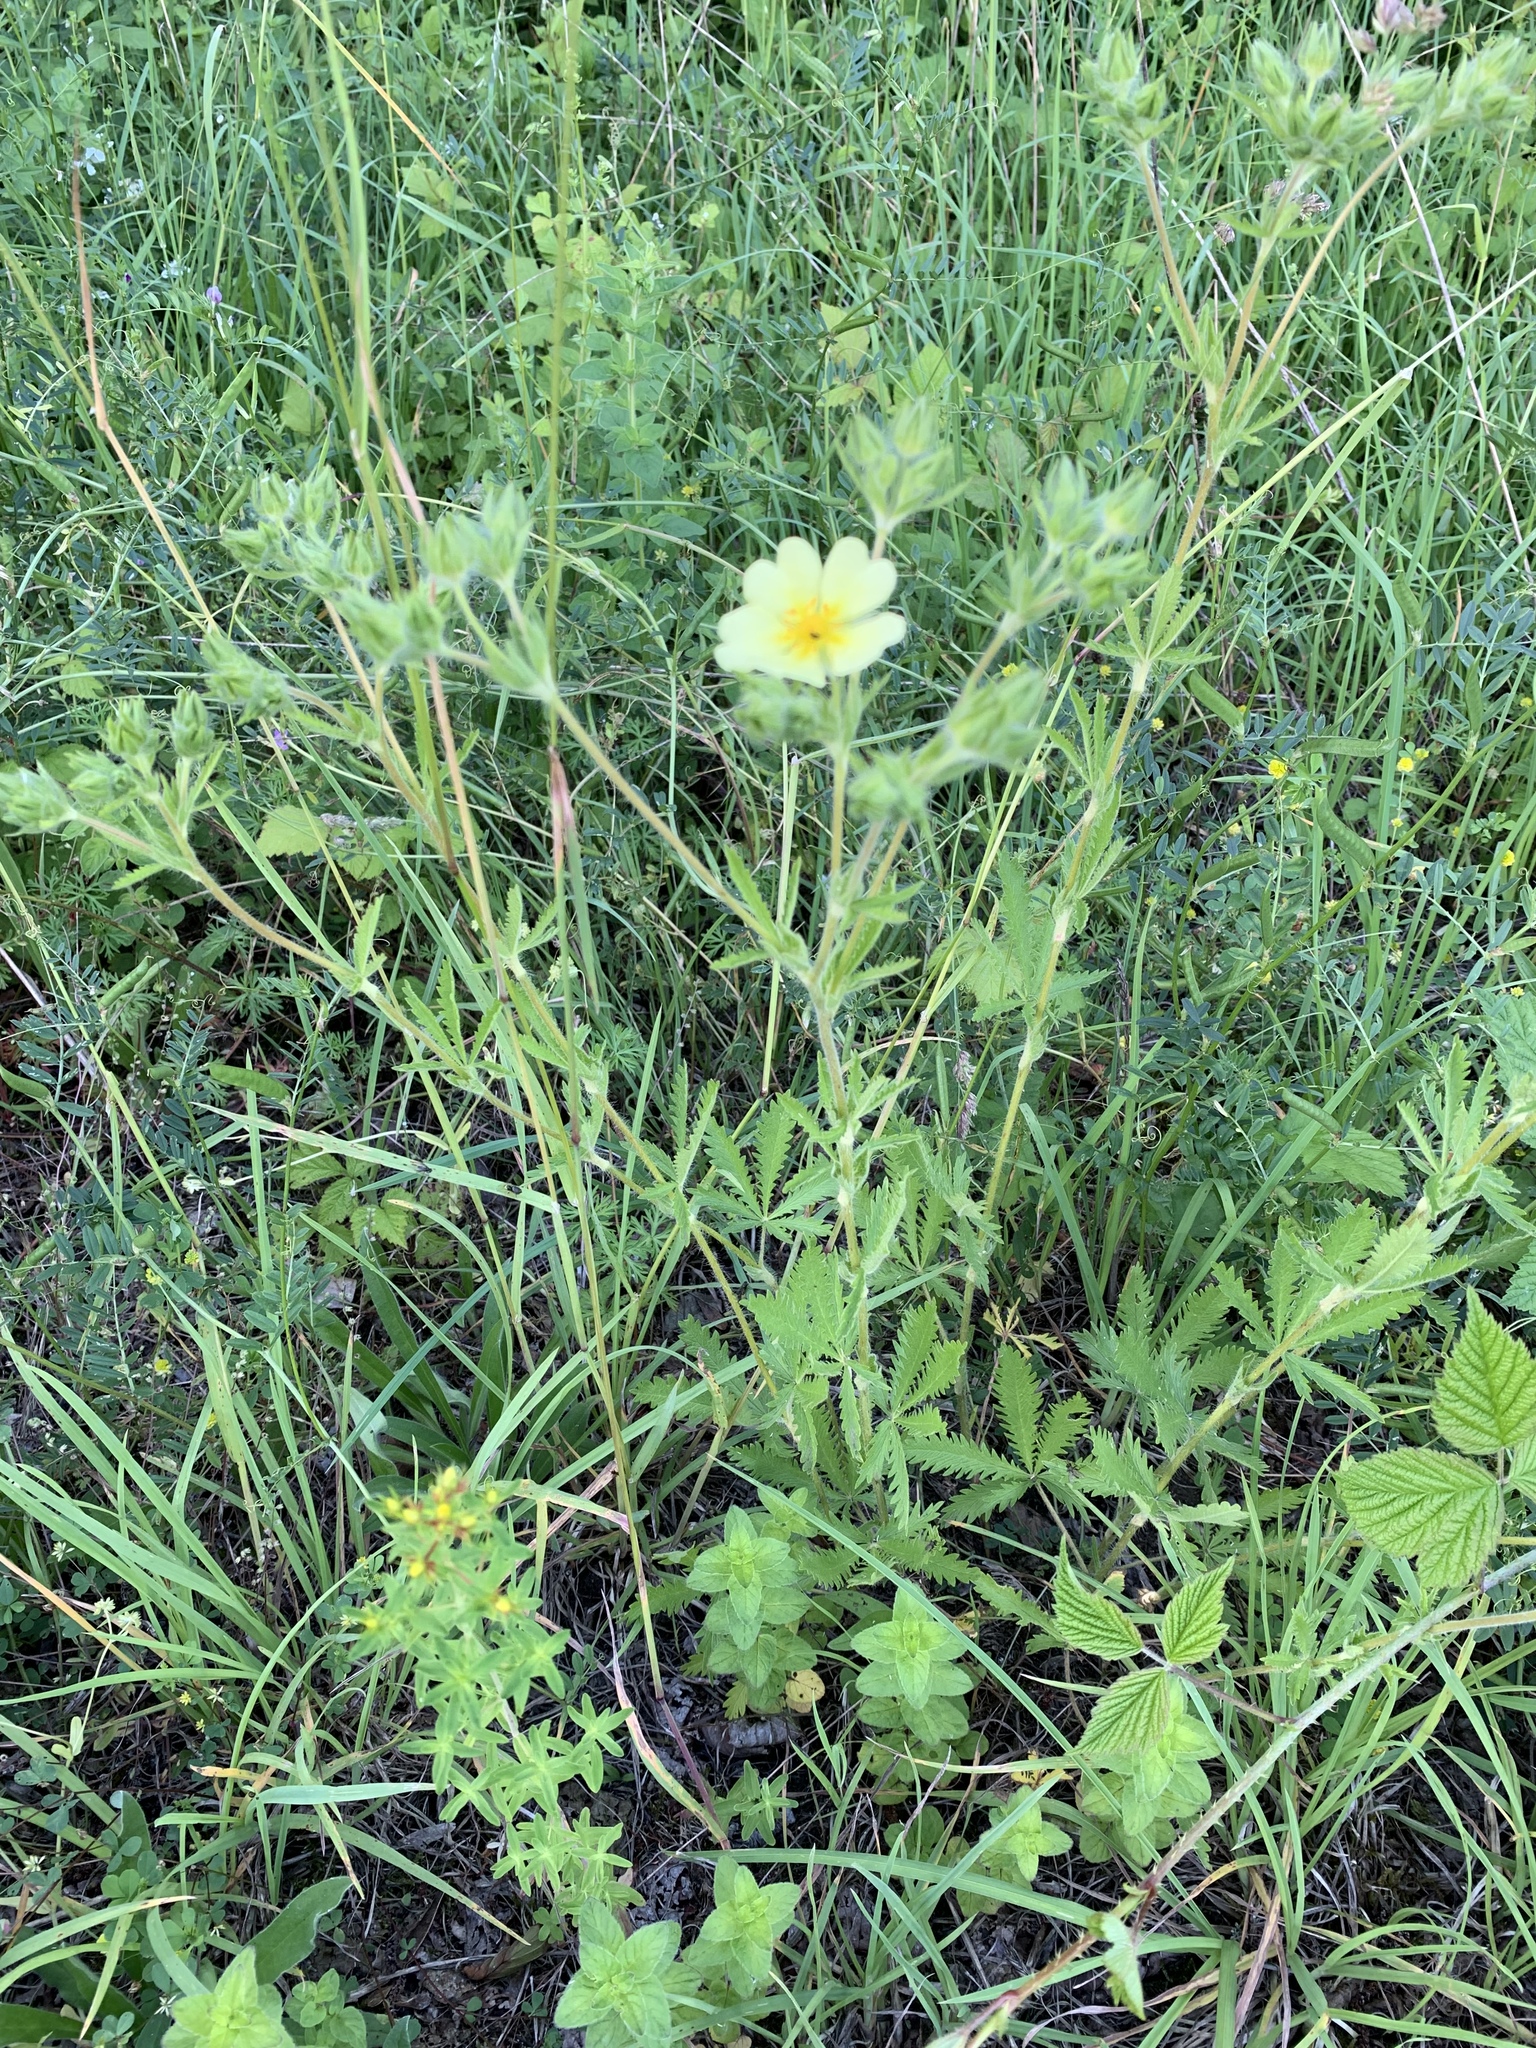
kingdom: Plantae
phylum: Tracheophyta
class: Magnoliopsida
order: Rosales
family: Rosaceae
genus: Potentilla
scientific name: Potentilla recta
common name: Sulphur cinquefoil
